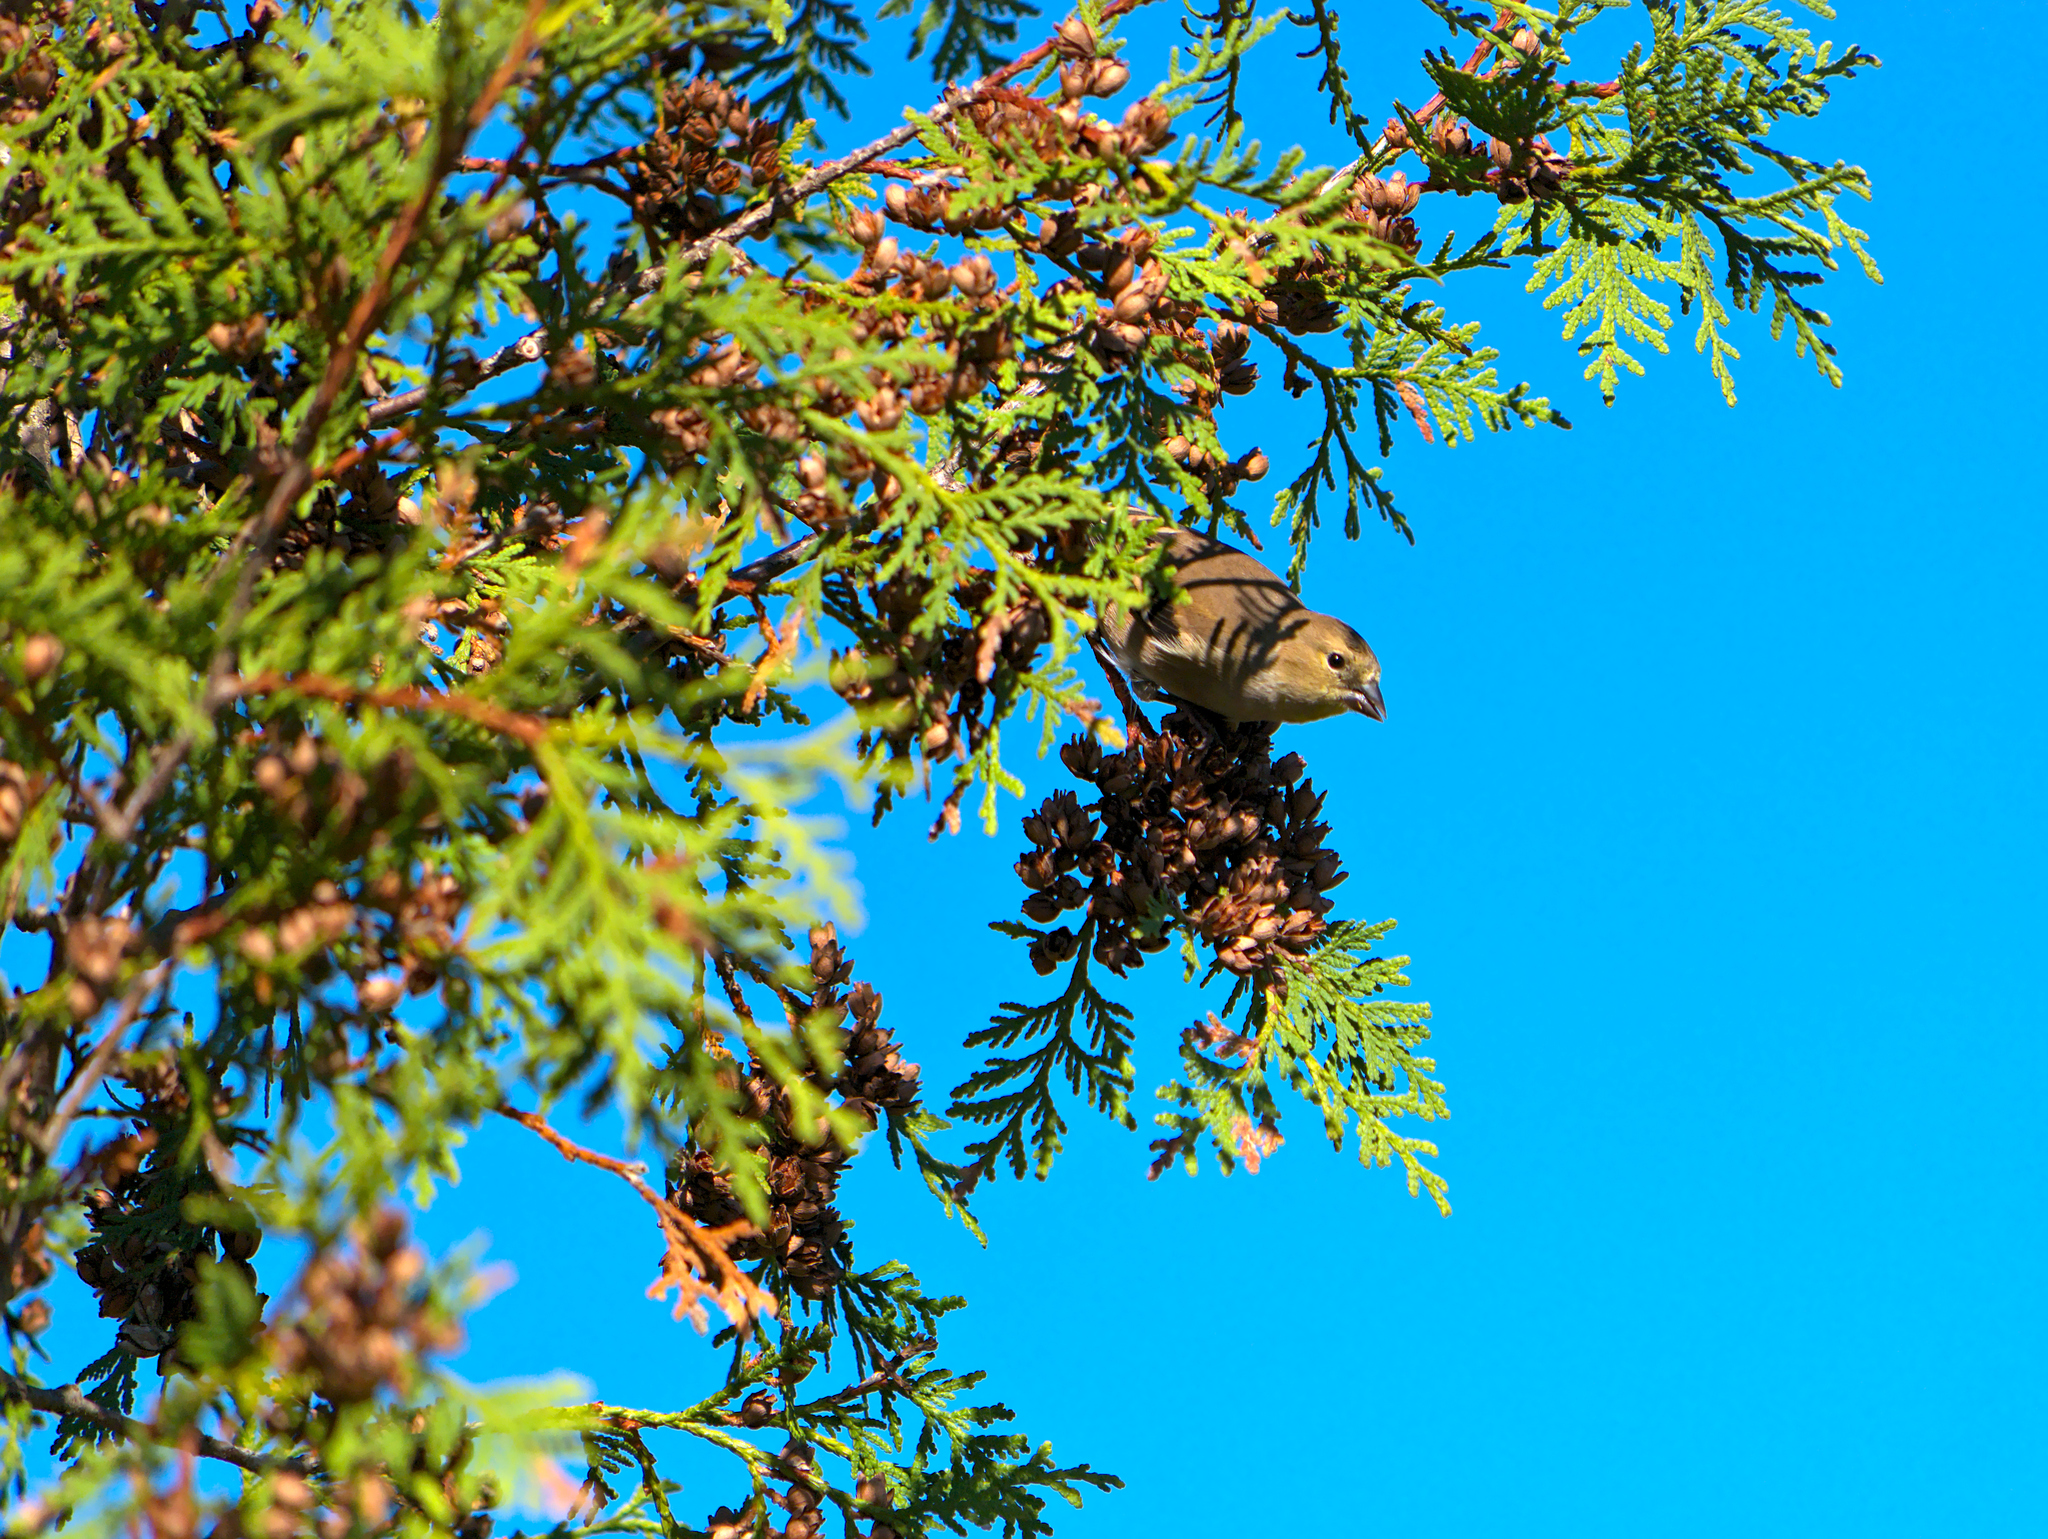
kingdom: Animalia
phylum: Chordata
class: Aves
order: Passeriformes
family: Fringillidae
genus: Spinus
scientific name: Spinus tristis
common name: American goldfinch
